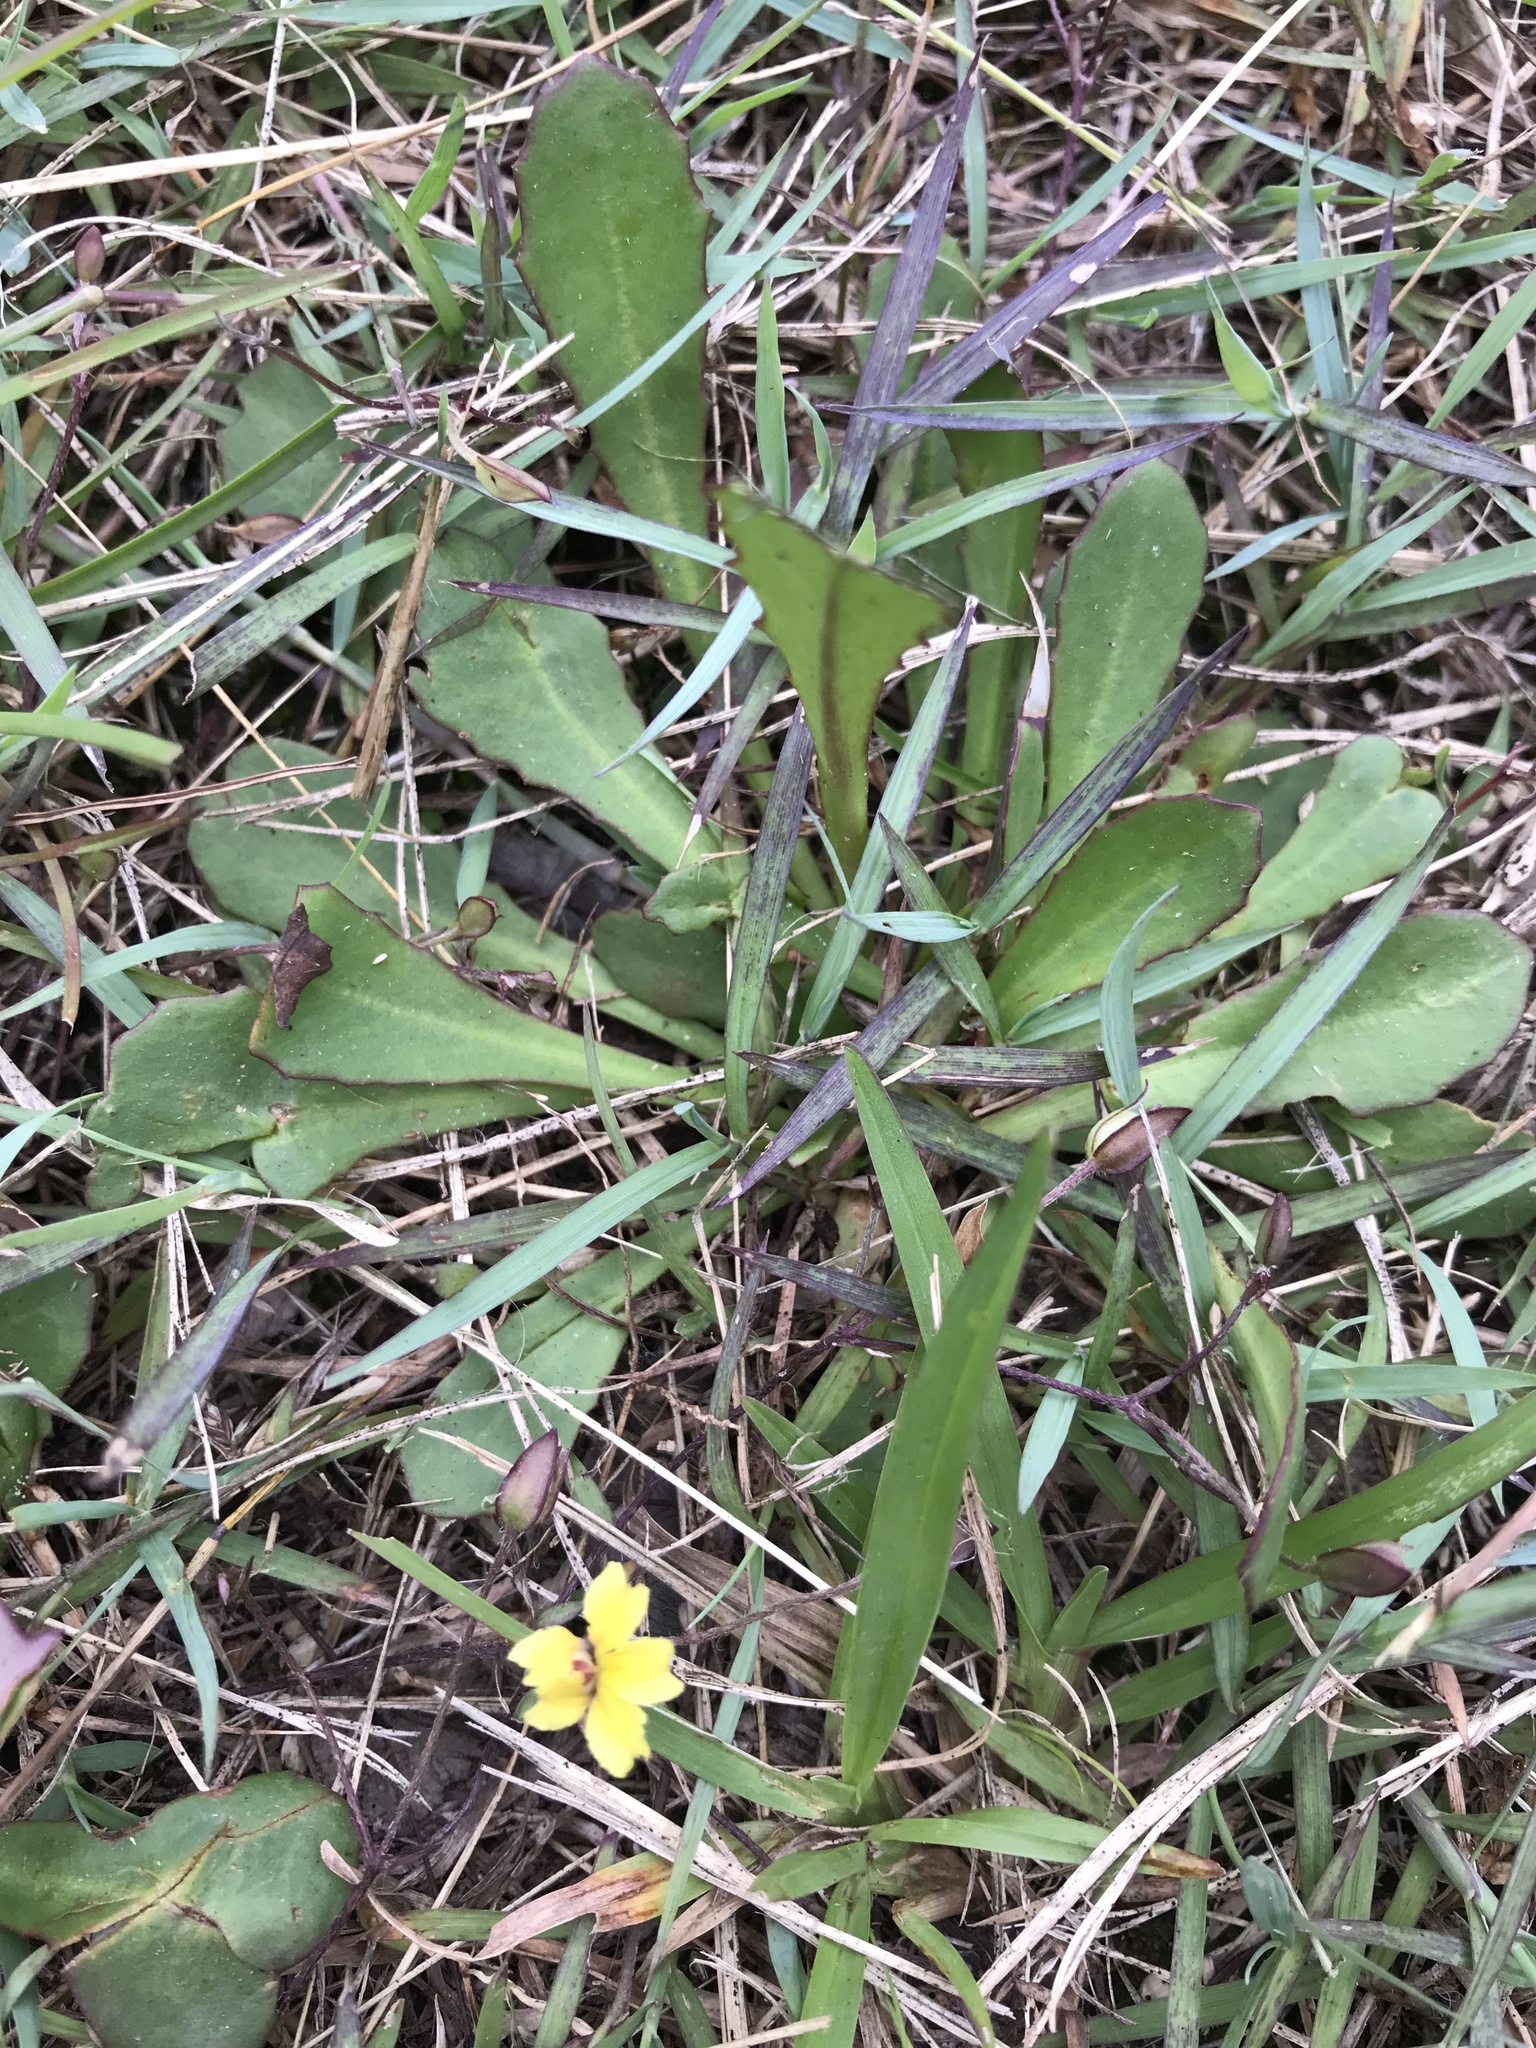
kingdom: Plantae
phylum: Tracheophyta
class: Magnoliopsida
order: Asterales
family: Goodeniaceae
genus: Goodenia
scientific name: Goodenia mystrophylla
